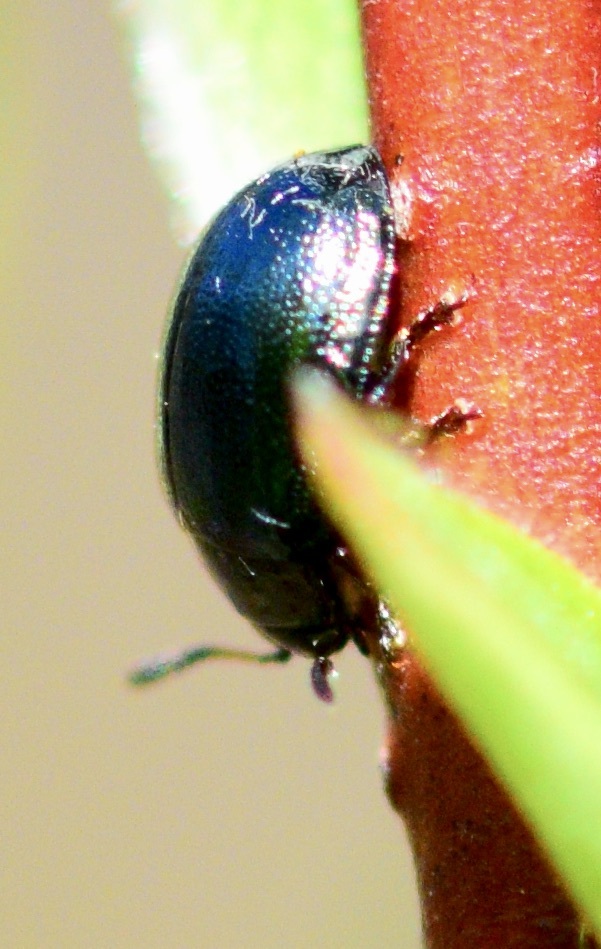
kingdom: Animalia
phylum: Arthropoda
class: Insecta
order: Coleoptera
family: Chrysomelidae
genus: Plagiodera
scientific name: Plagiodera versicolora
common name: Imported willow leaf beetle
